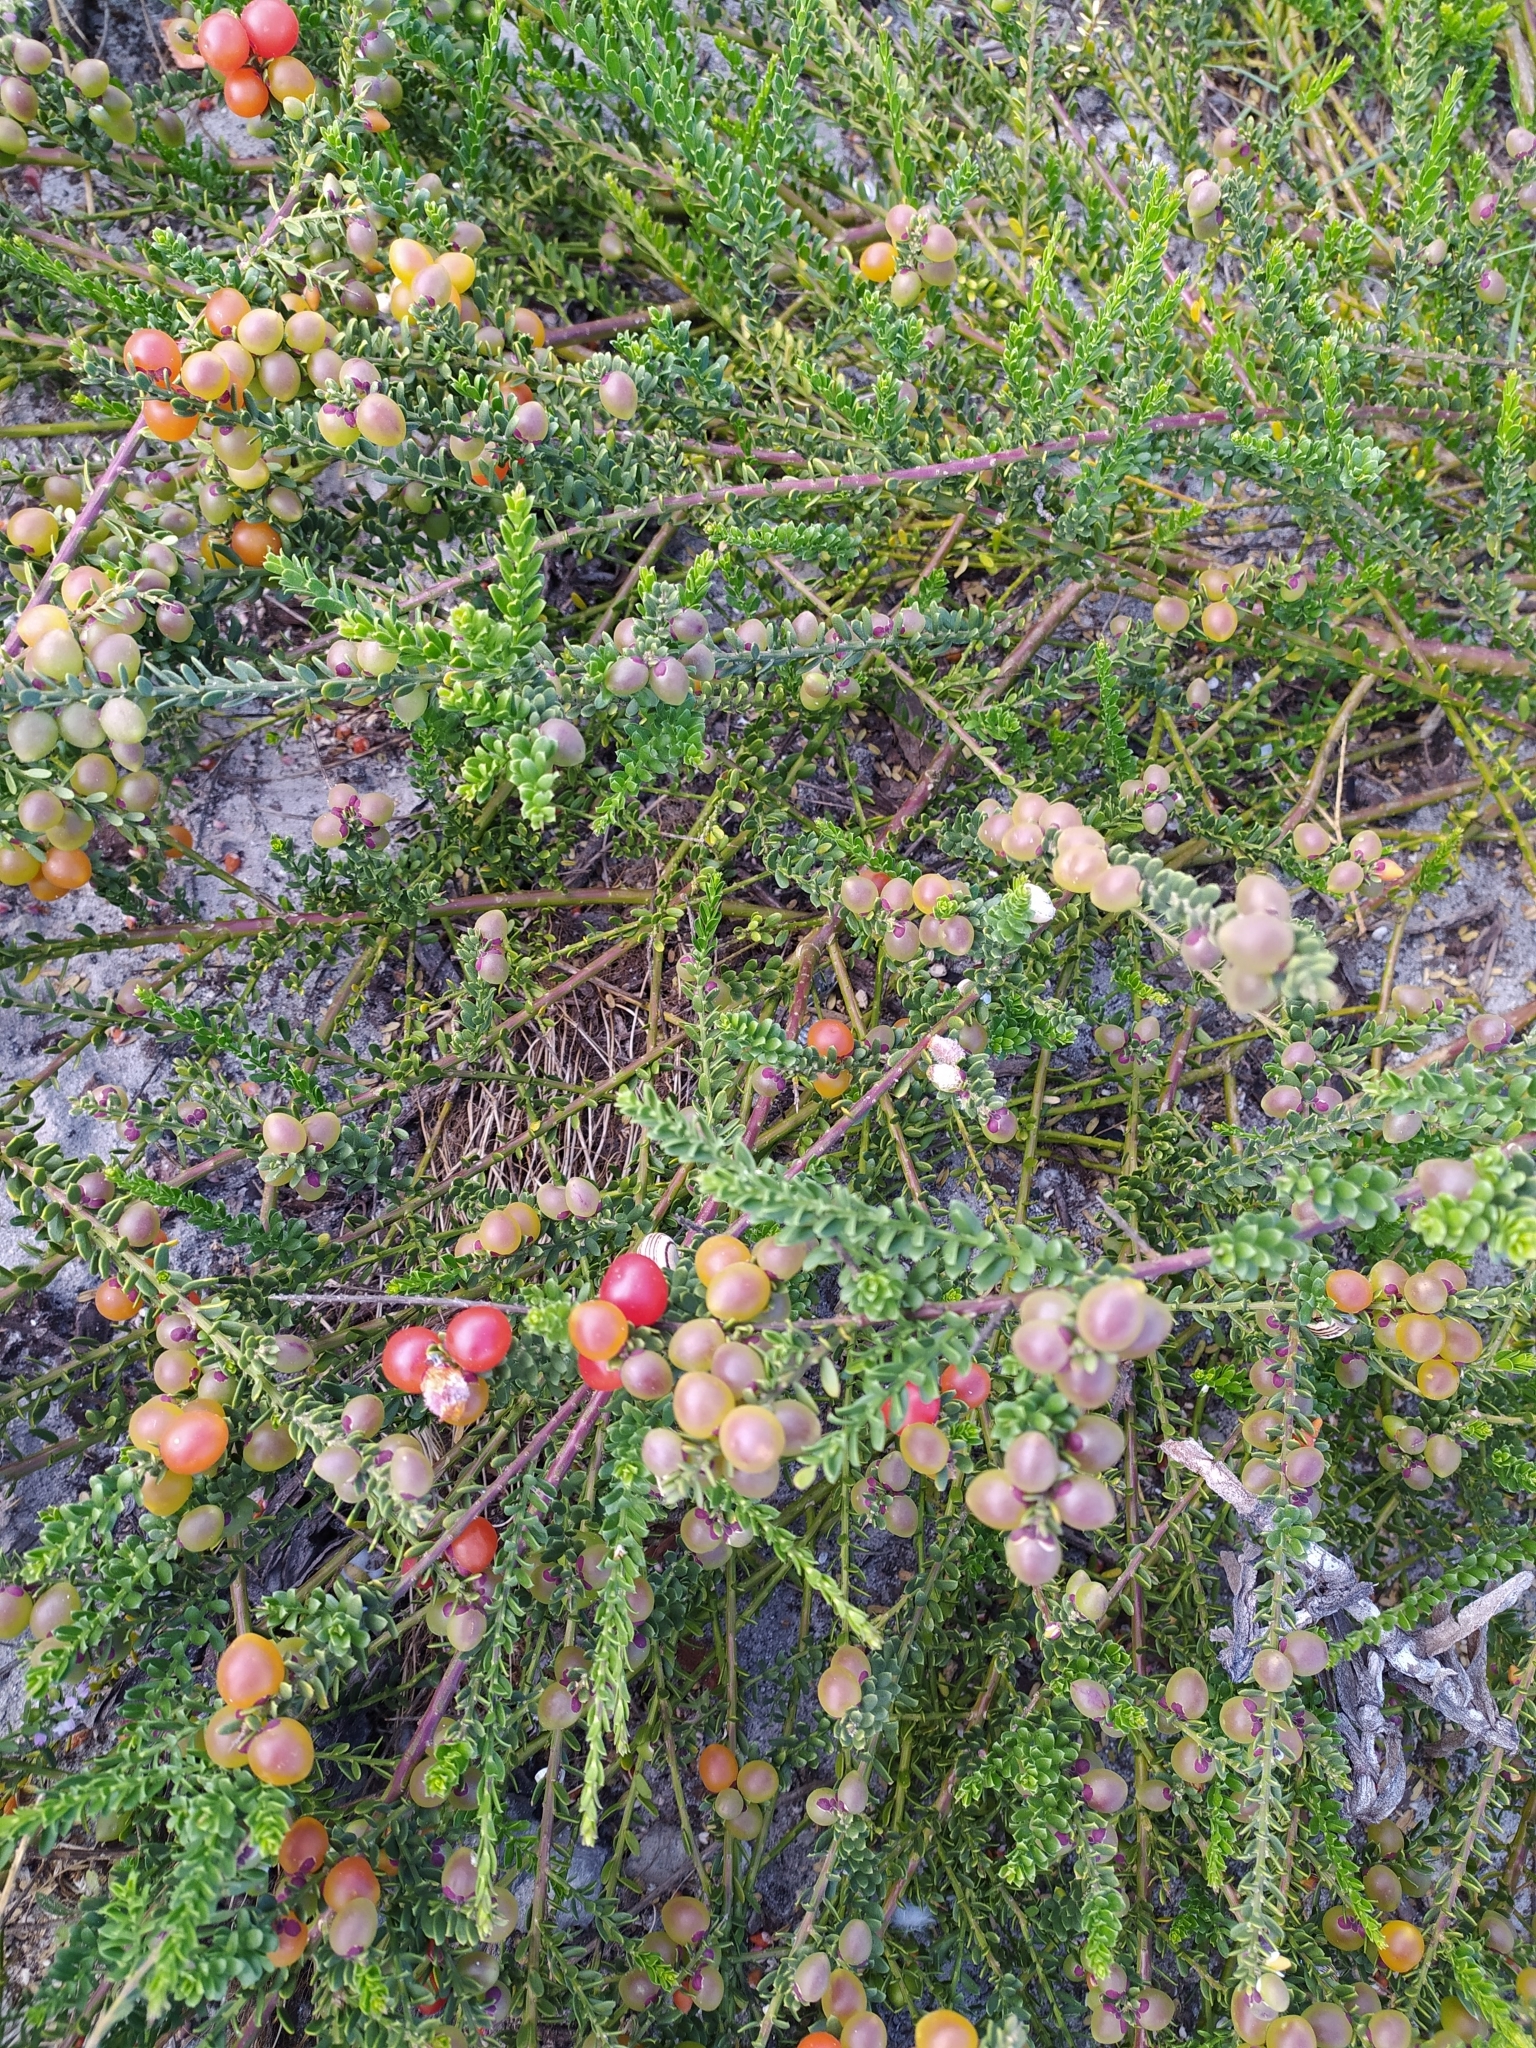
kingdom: Plantae
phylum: Tracheophyta
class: Magnoliopsida
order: Fabales
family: Polygalaceae
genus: Muraltia
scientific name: Muraltia spinosa
